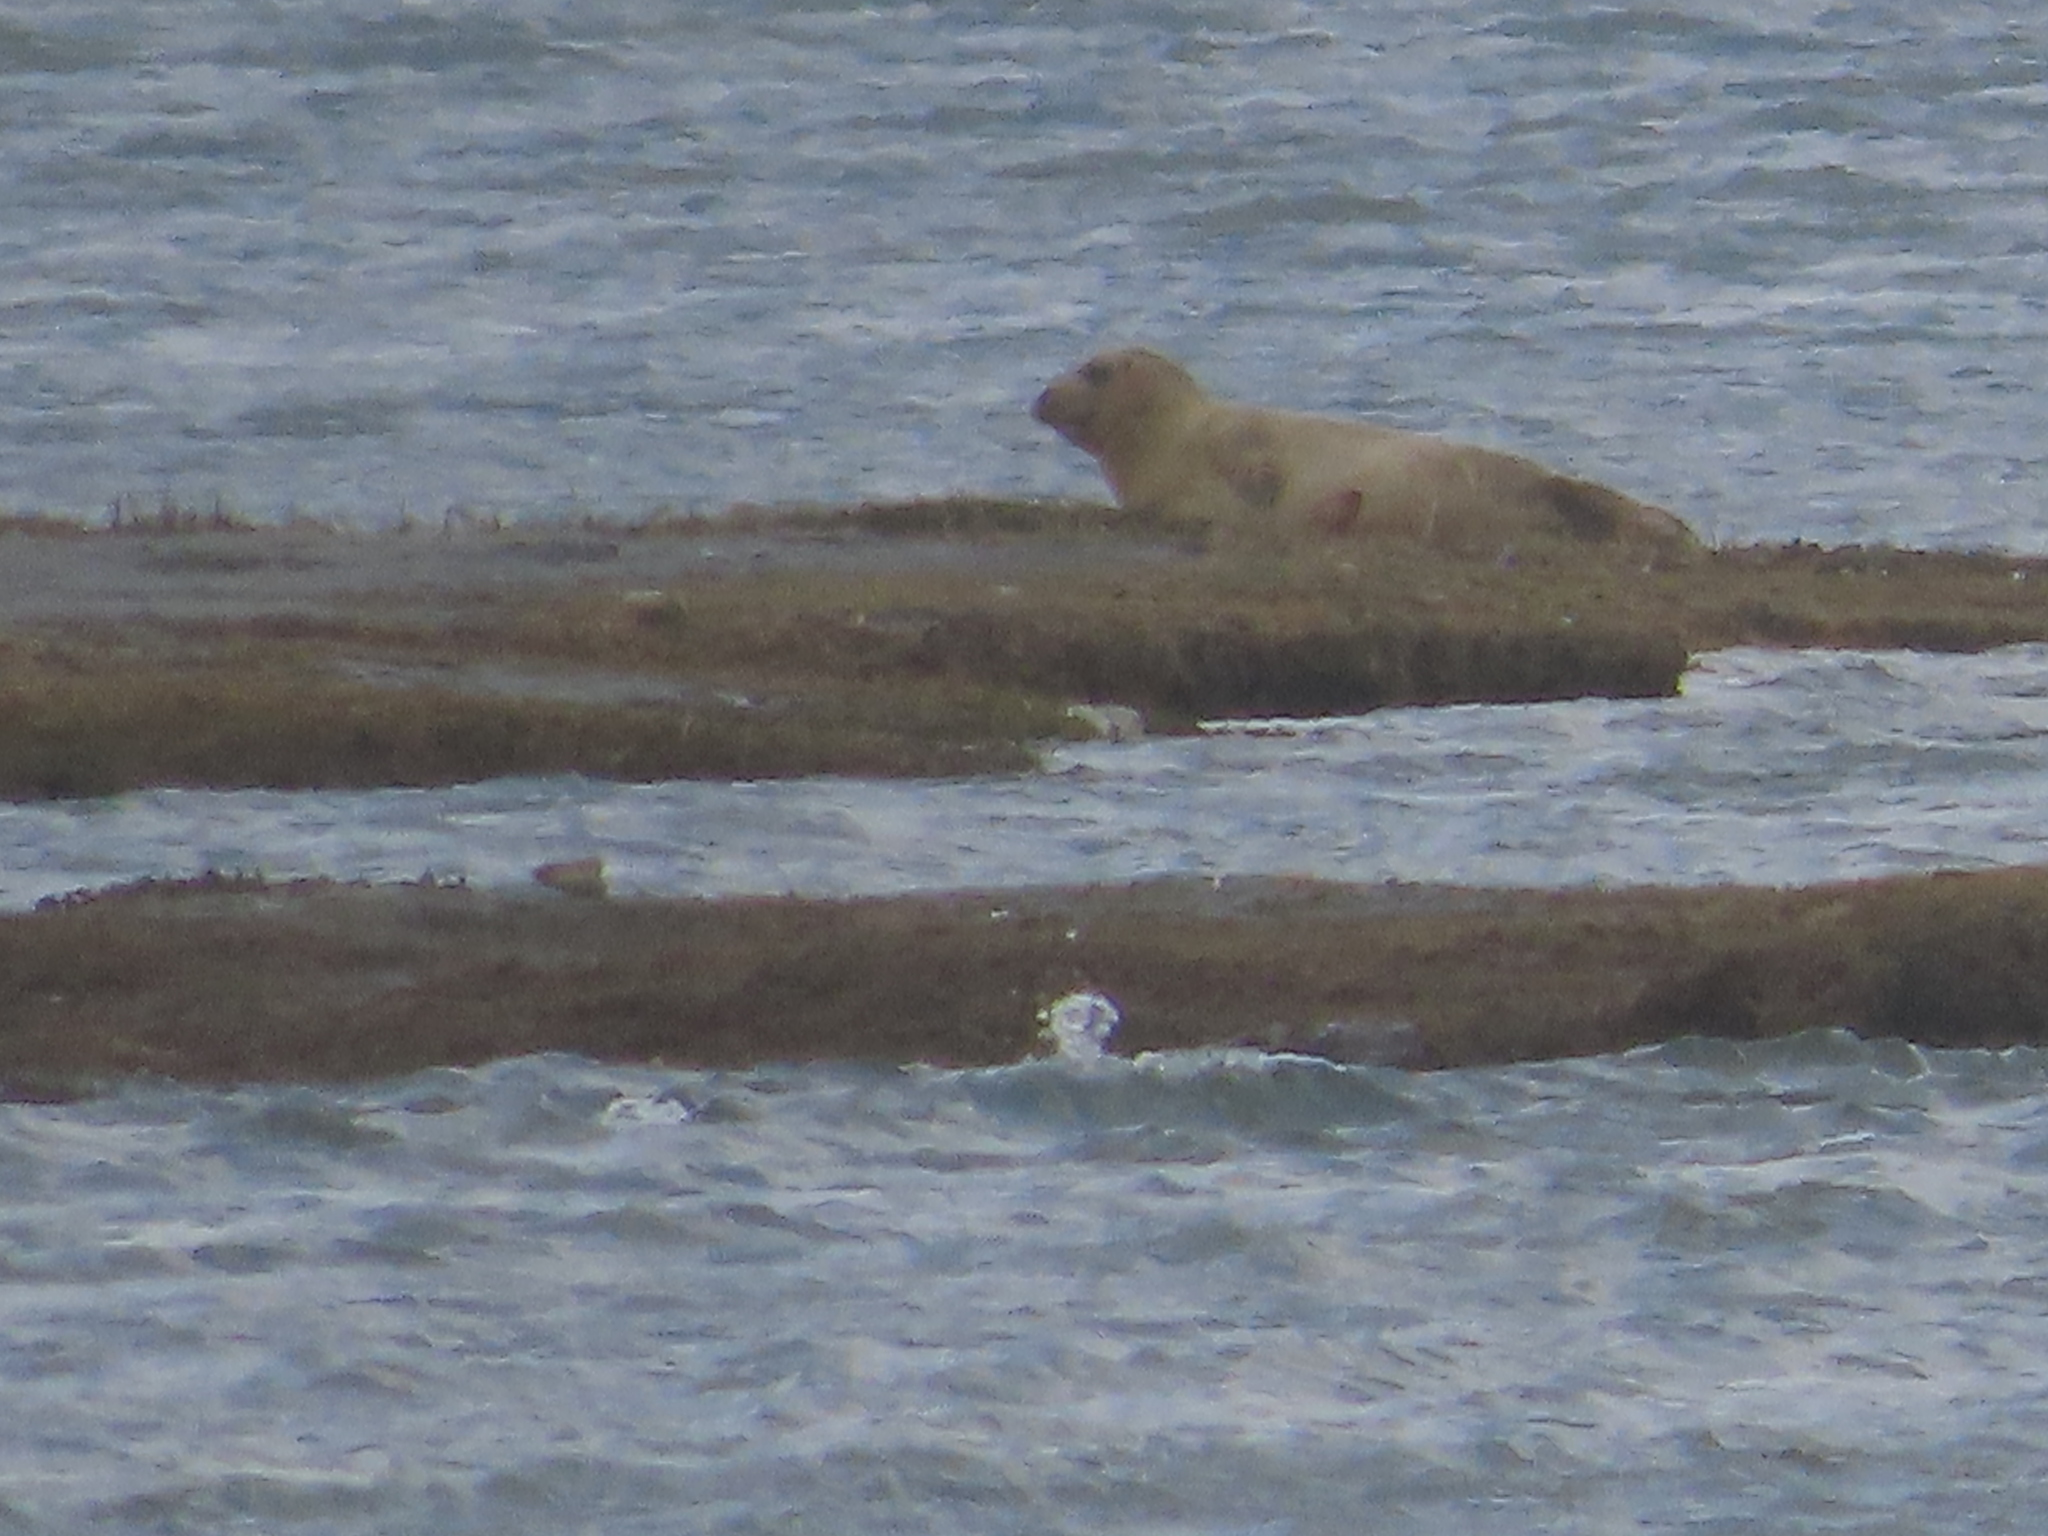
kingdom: Animalia
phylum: Chordata
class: Mammalia
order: Carnivora
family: Phocidae
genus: Halichoerus
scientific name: Halichoerus grypus
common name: Grey seal
